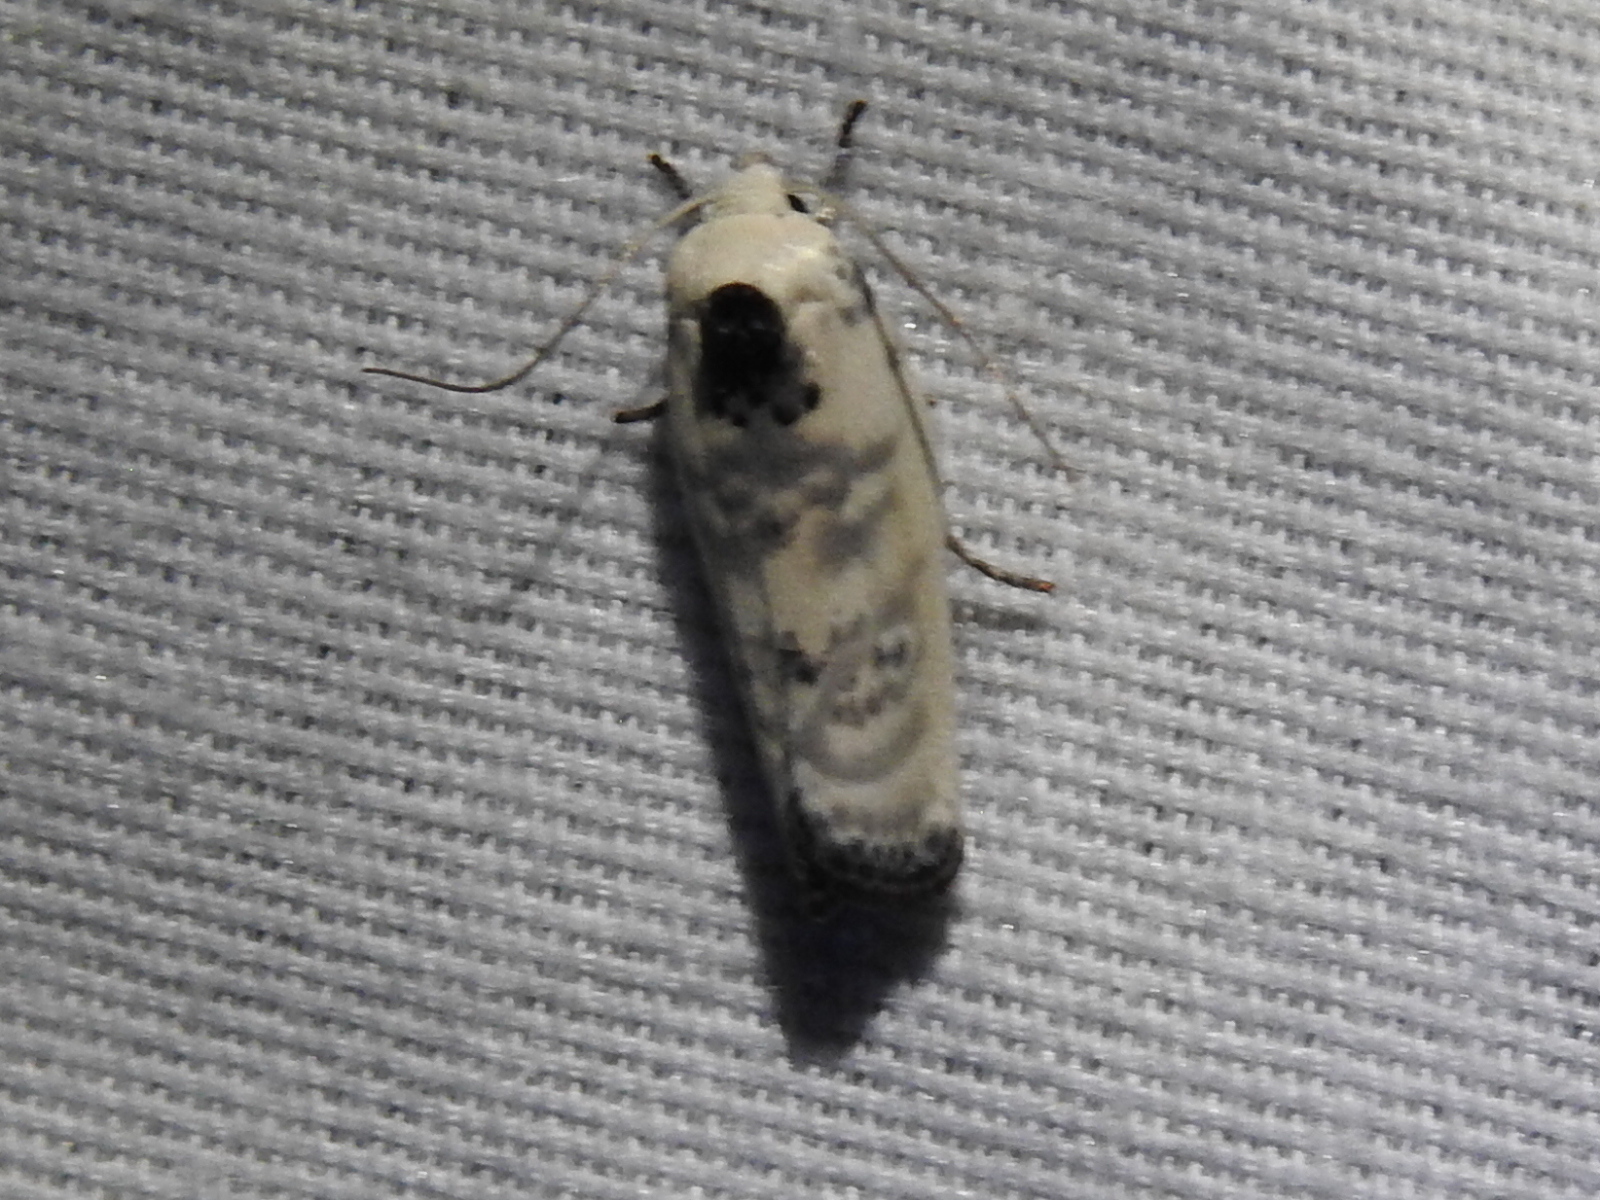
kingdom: Animalia
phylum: Arthropoda
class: Insecta
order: Lepidoptera
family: Depressariidae
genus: Antaeotricha
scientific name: Antaeotricha schlaegeri
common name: Schlaeger's fruitworm moth
